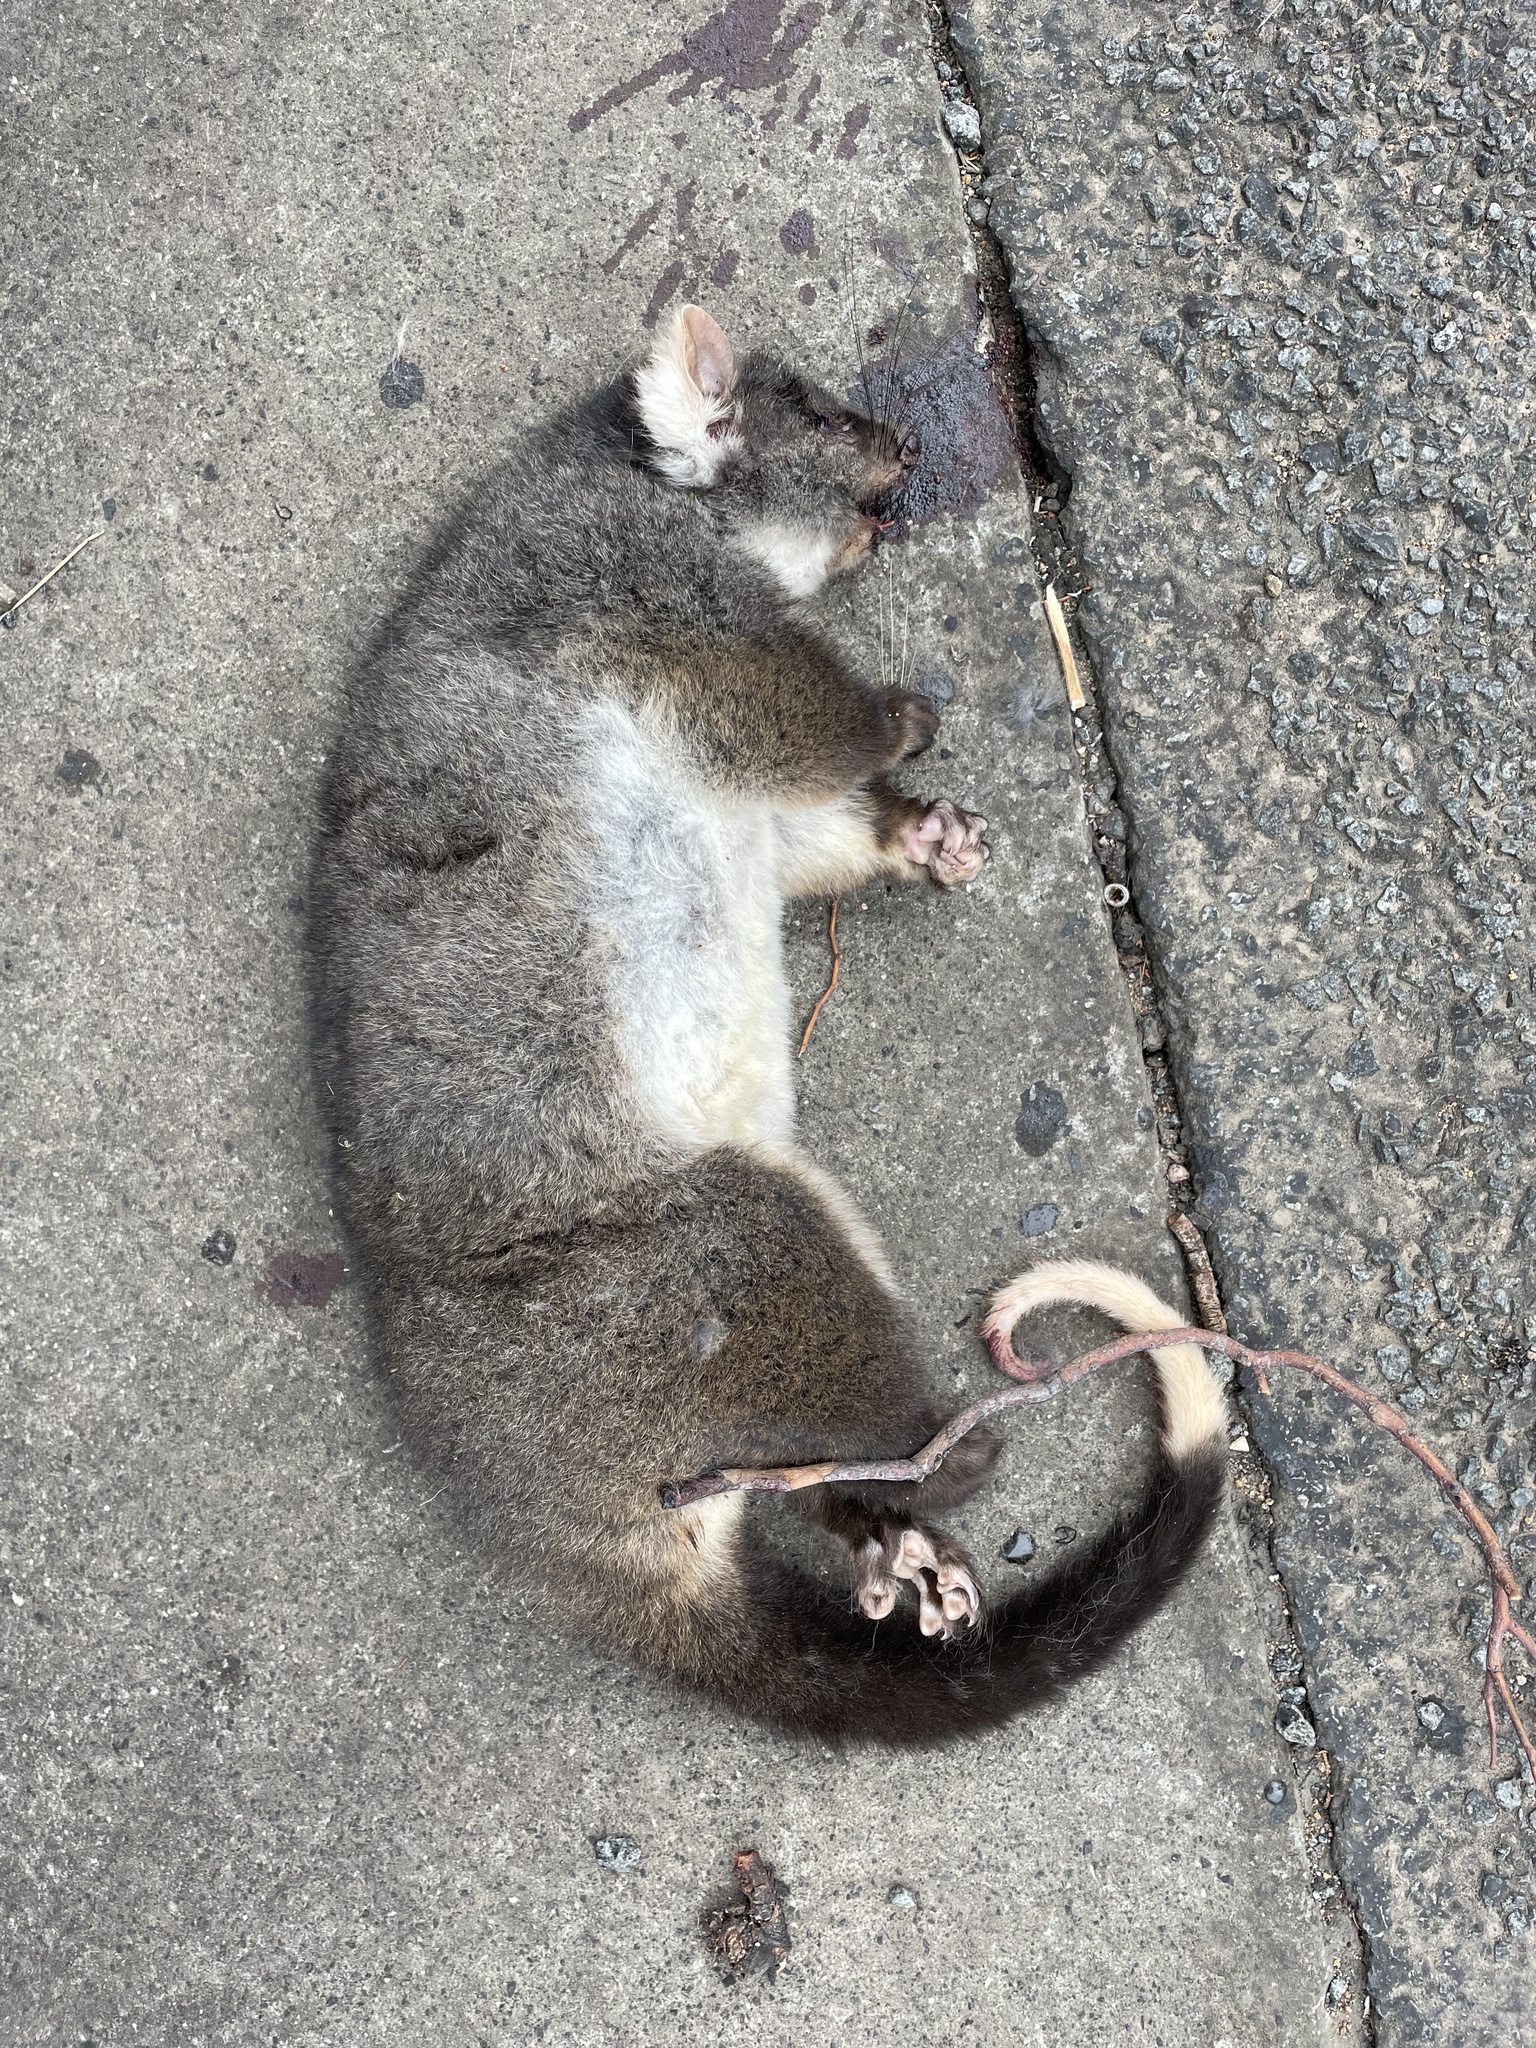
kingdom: Animalia
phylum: Chordata
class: Mammalia
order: Diprotodontia
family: Pseudocheiridae
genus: Pseudocheirus
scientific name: Pseudocheirus peregrinus
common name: Common ringtail possum
